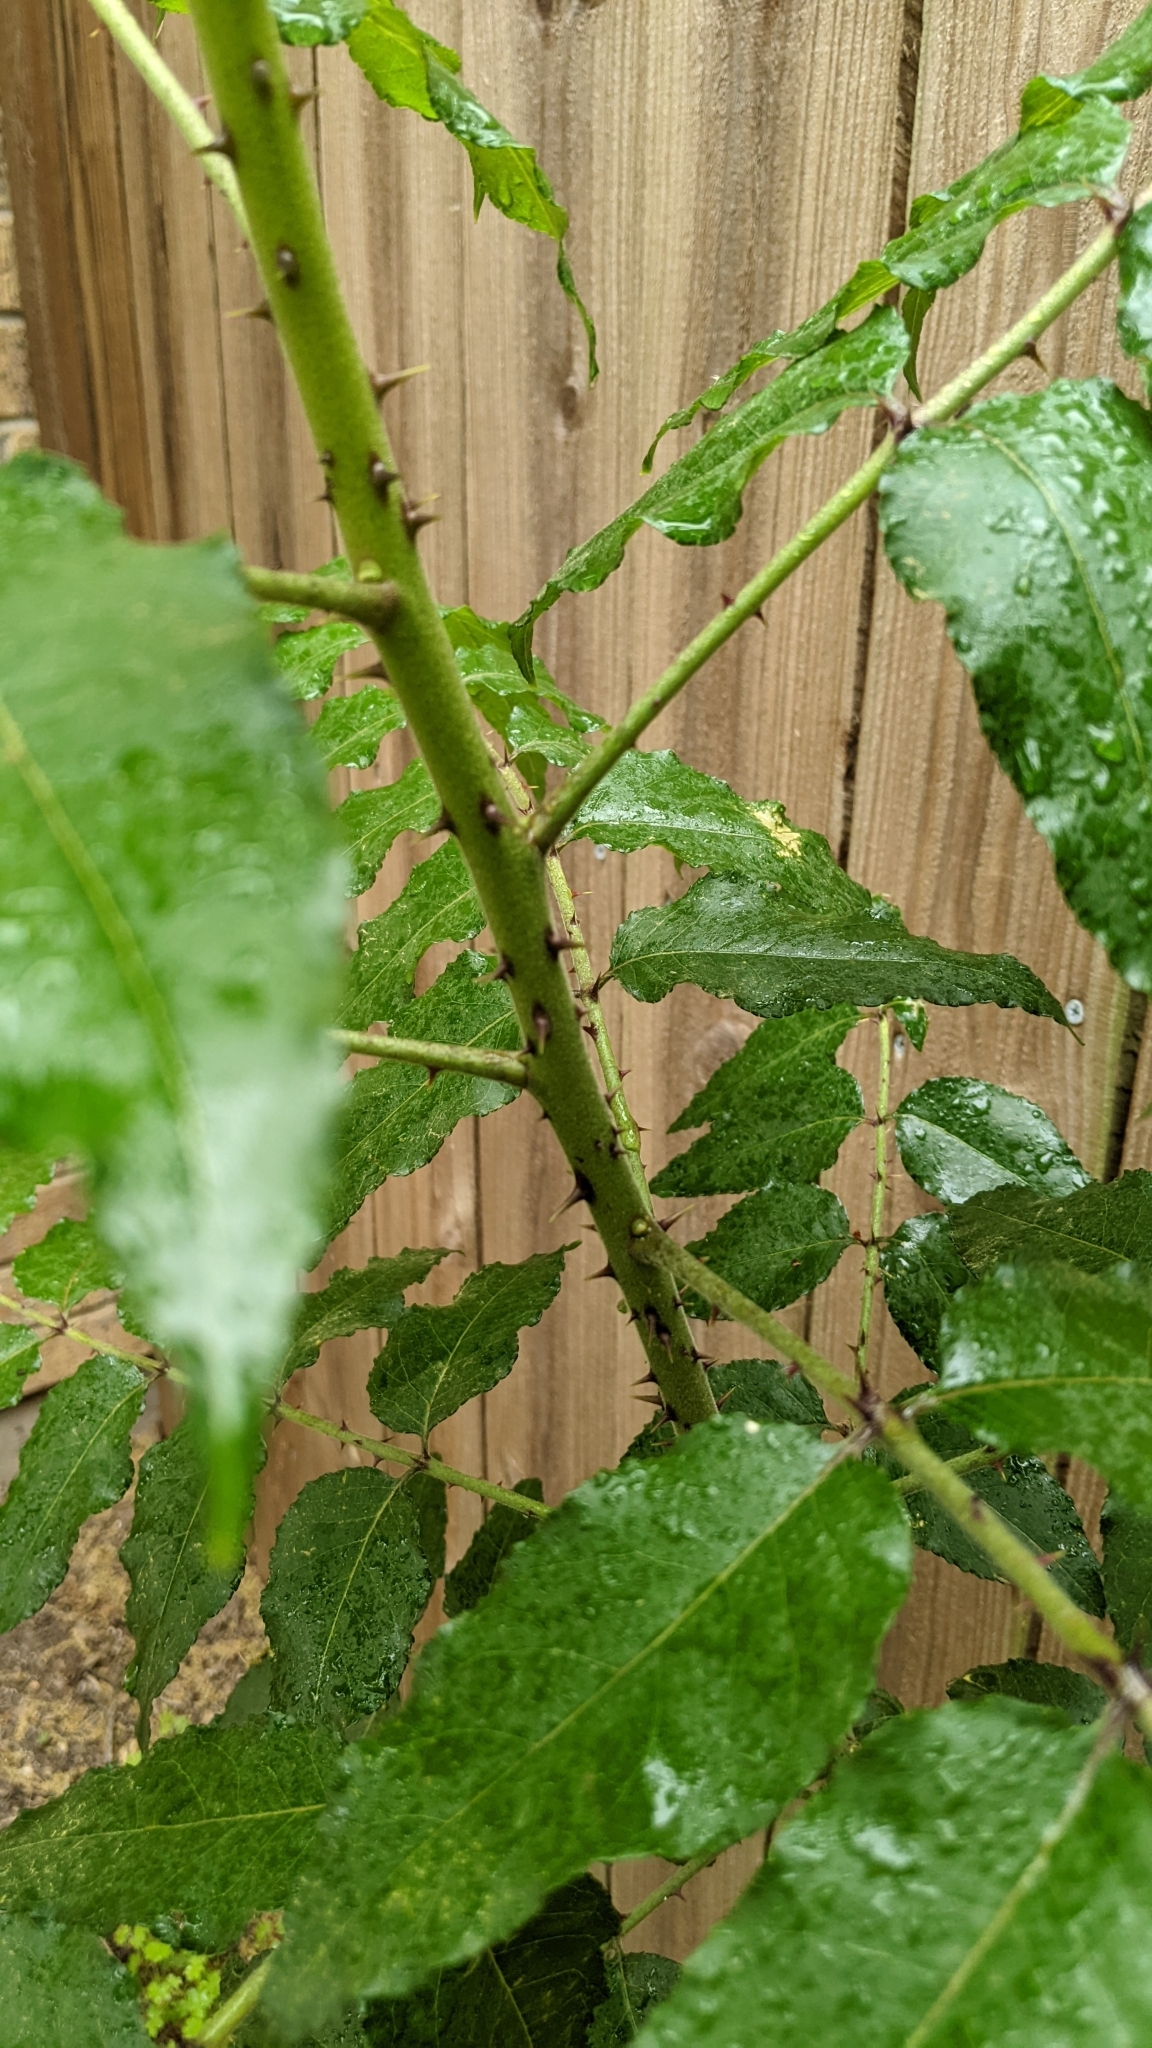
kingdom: Plantae
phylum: Tracheophyta
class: Magnoliopsida
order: Sapindales
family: Rutaceae
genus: Zanthoxylum
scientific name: Zanthoxylum clava-herculis
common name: Hercules'-club
